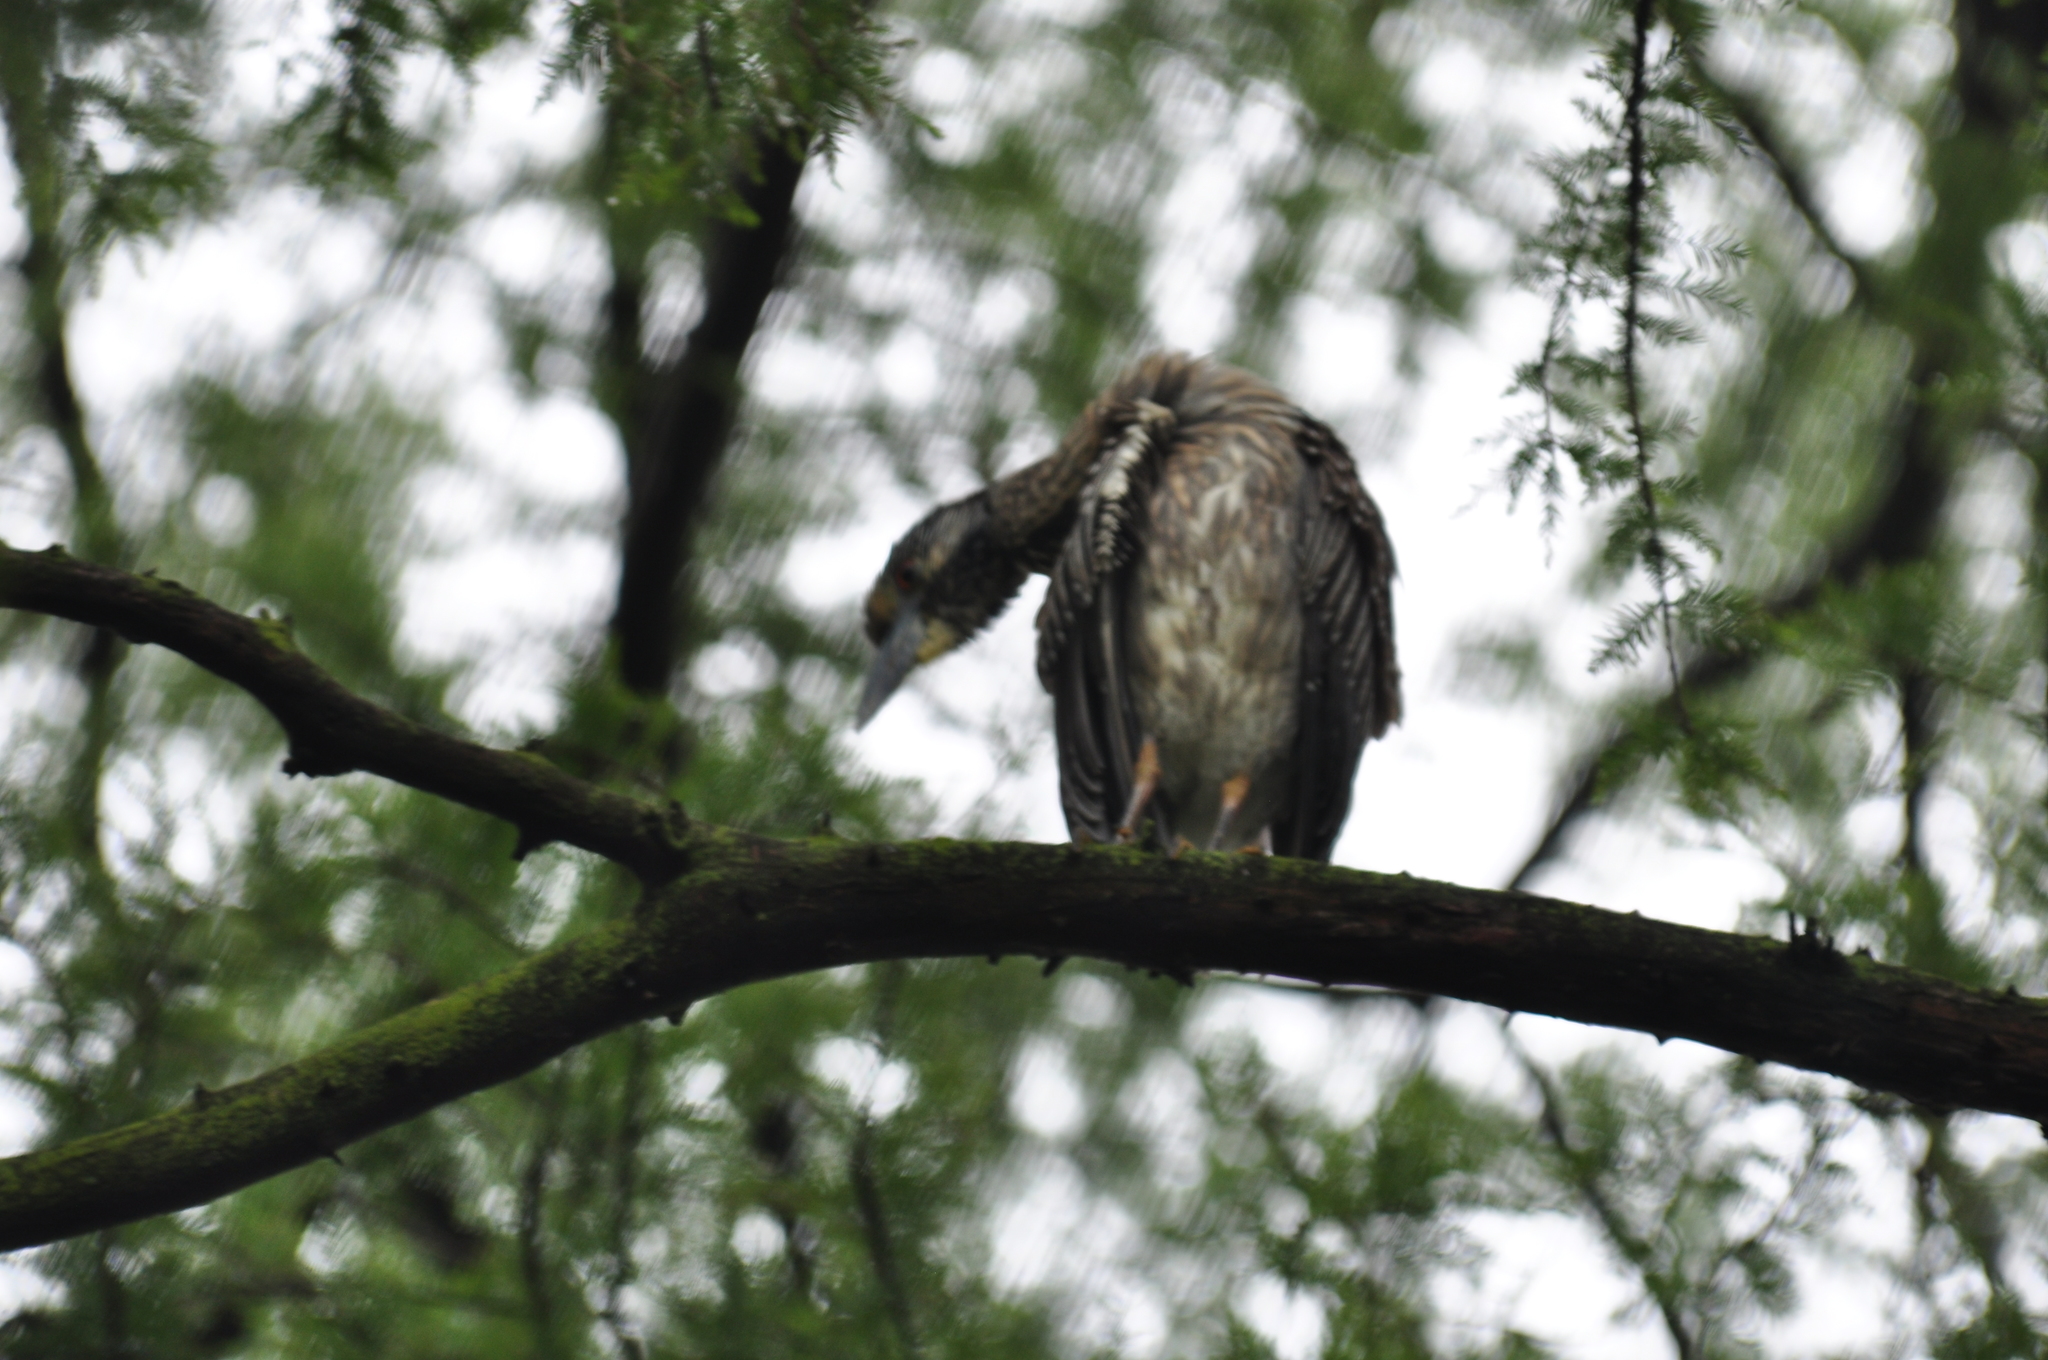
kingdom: Animalia
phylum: Chordata
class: Aves
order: Pelecaniformes
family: Ardeidae
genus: Nyctanassa
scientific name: Nyctanassa violacea
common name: Yellow-crowned night heron
